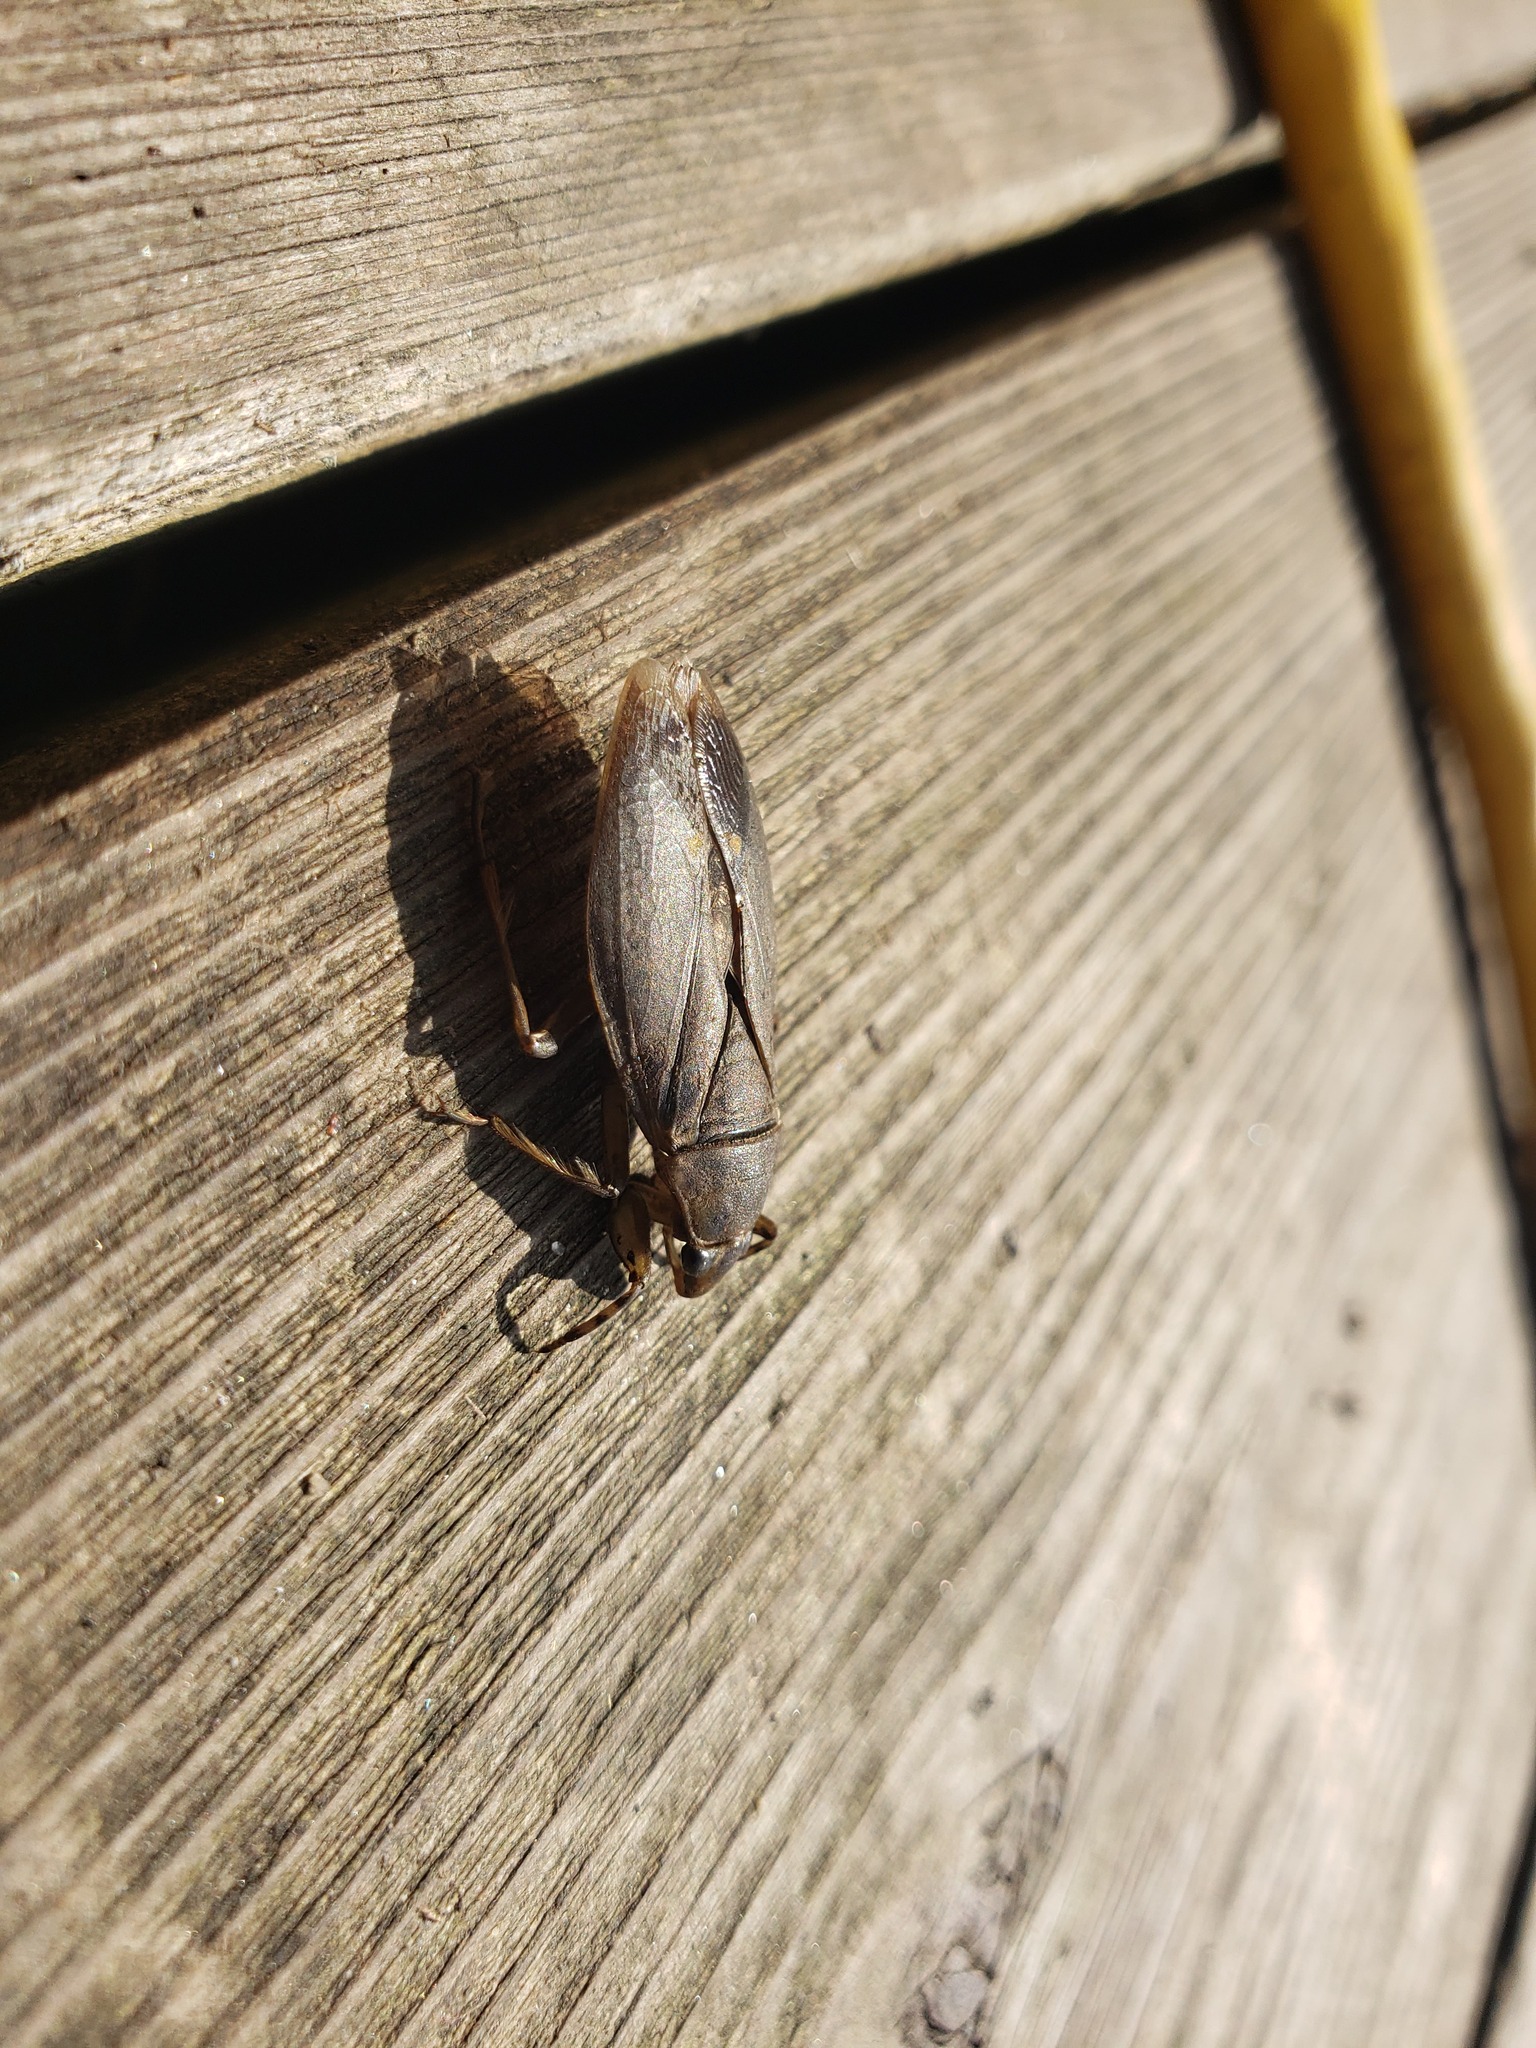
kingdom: Animalia
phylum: Arthropoda
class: Insecta
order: Hemiptera
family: Belostomatidae
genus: Belostoma
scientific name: Belostoma flumineum
